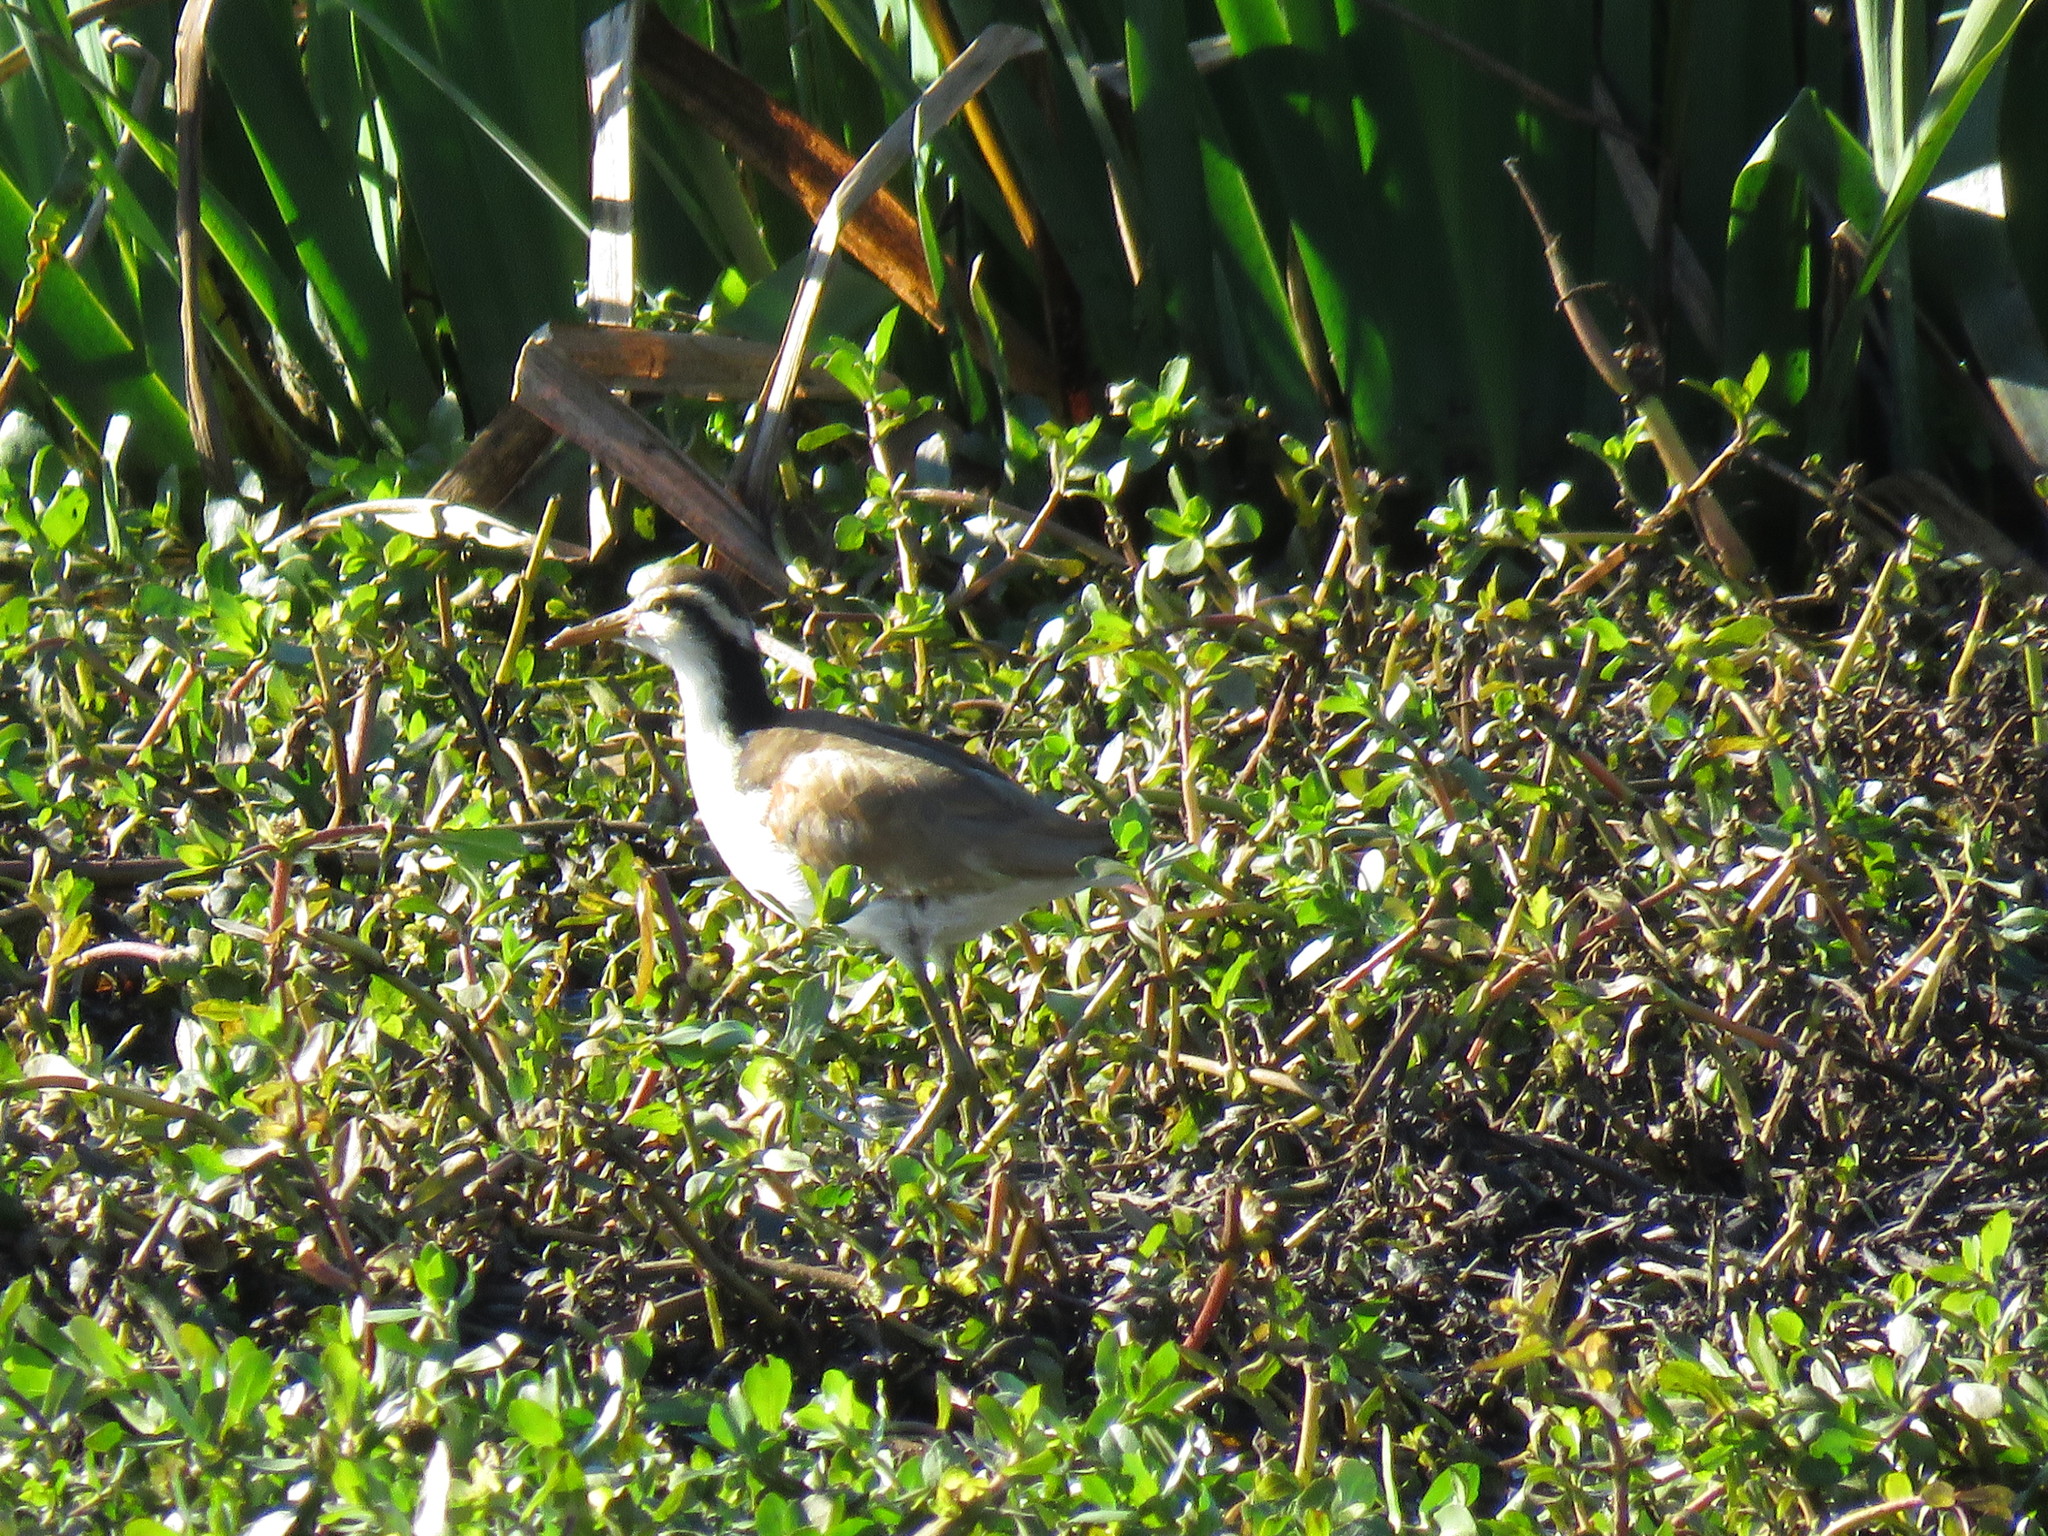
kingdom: Animalia
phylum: Chordata
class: Aves
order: Charadriiformes
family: Jacanidae
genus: Jacana
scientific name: Jacana jacana
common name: Wattled jacana
